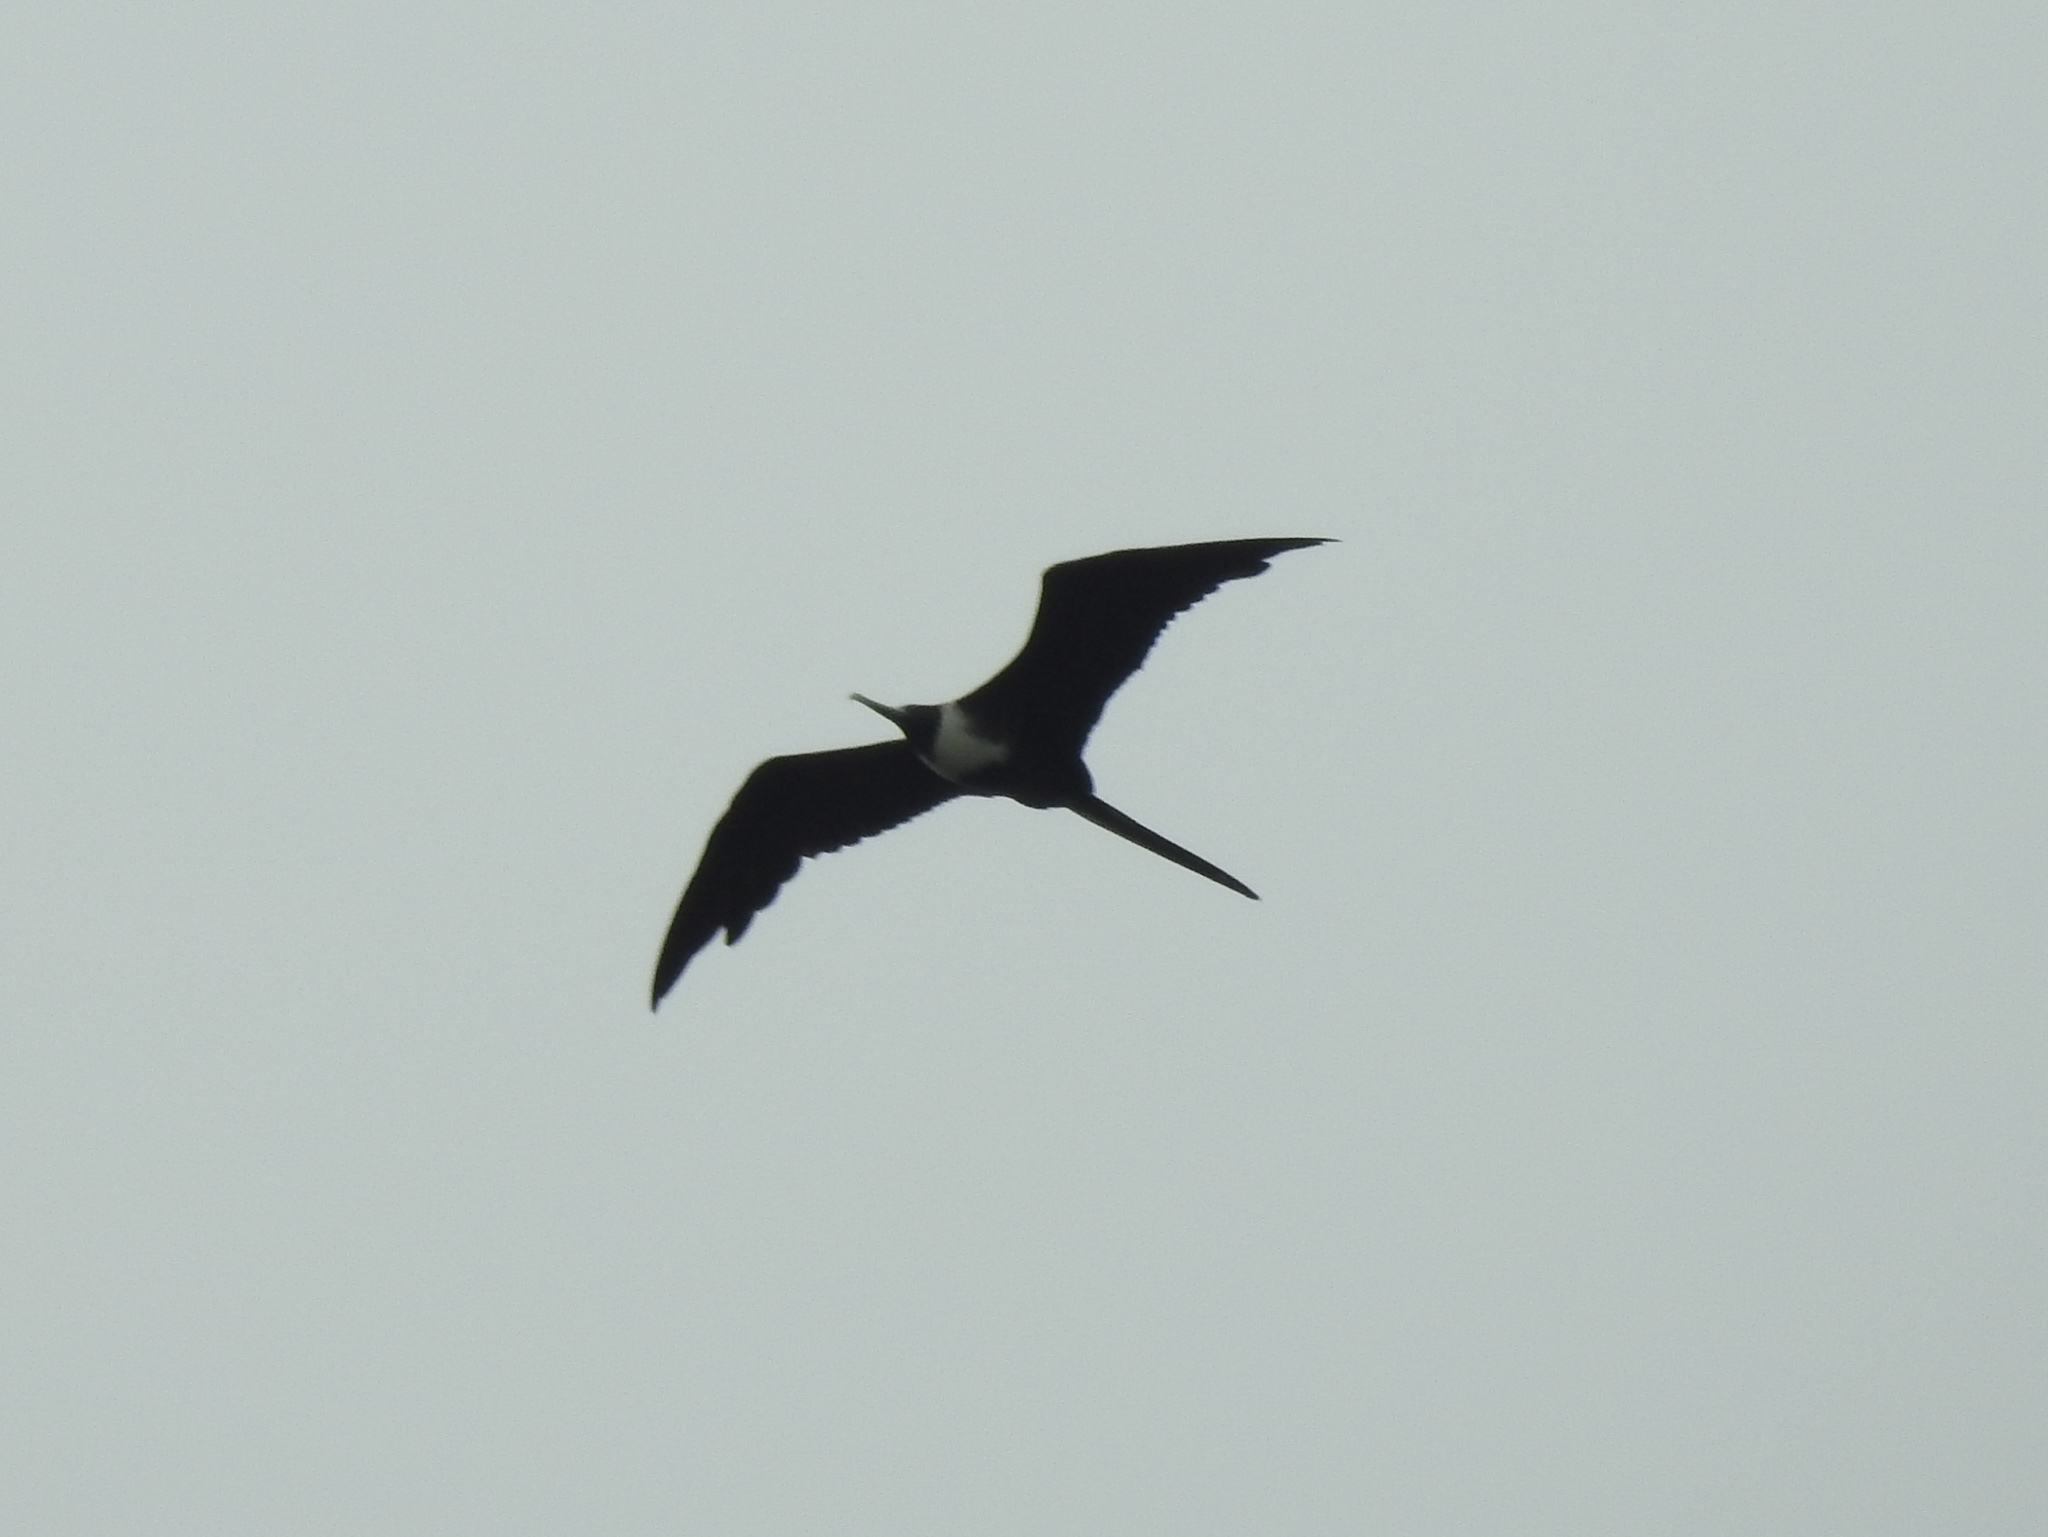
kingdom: Animalia
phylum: Chordata
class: Aves
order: Suliformes
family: Fregatidae
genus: Fregata
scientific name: Fregata magnificens
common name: Magnificent frigatebird
